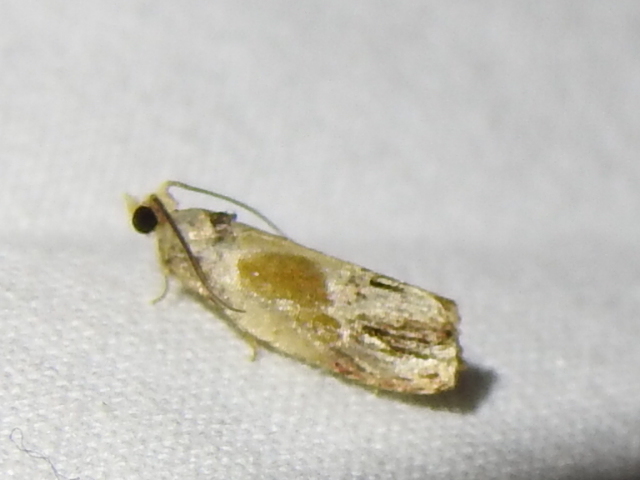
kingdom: Animalia
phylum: Arthropoda
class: Insecta
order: Lepidoptera
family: Tortricidae
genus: Eumarozia
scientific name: Eumarozia malachitana
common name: Sculptured moth
